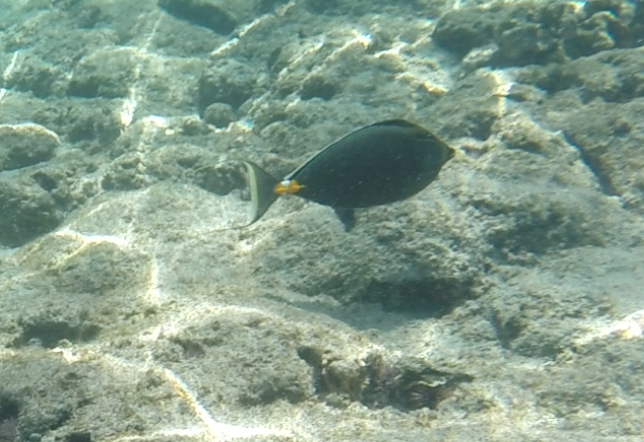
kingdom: Animalia
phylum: Chordata
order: Perciformes
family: Acanthuridae
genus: Naso
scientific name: Naso lituratus
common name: Orangespine unicornfish
